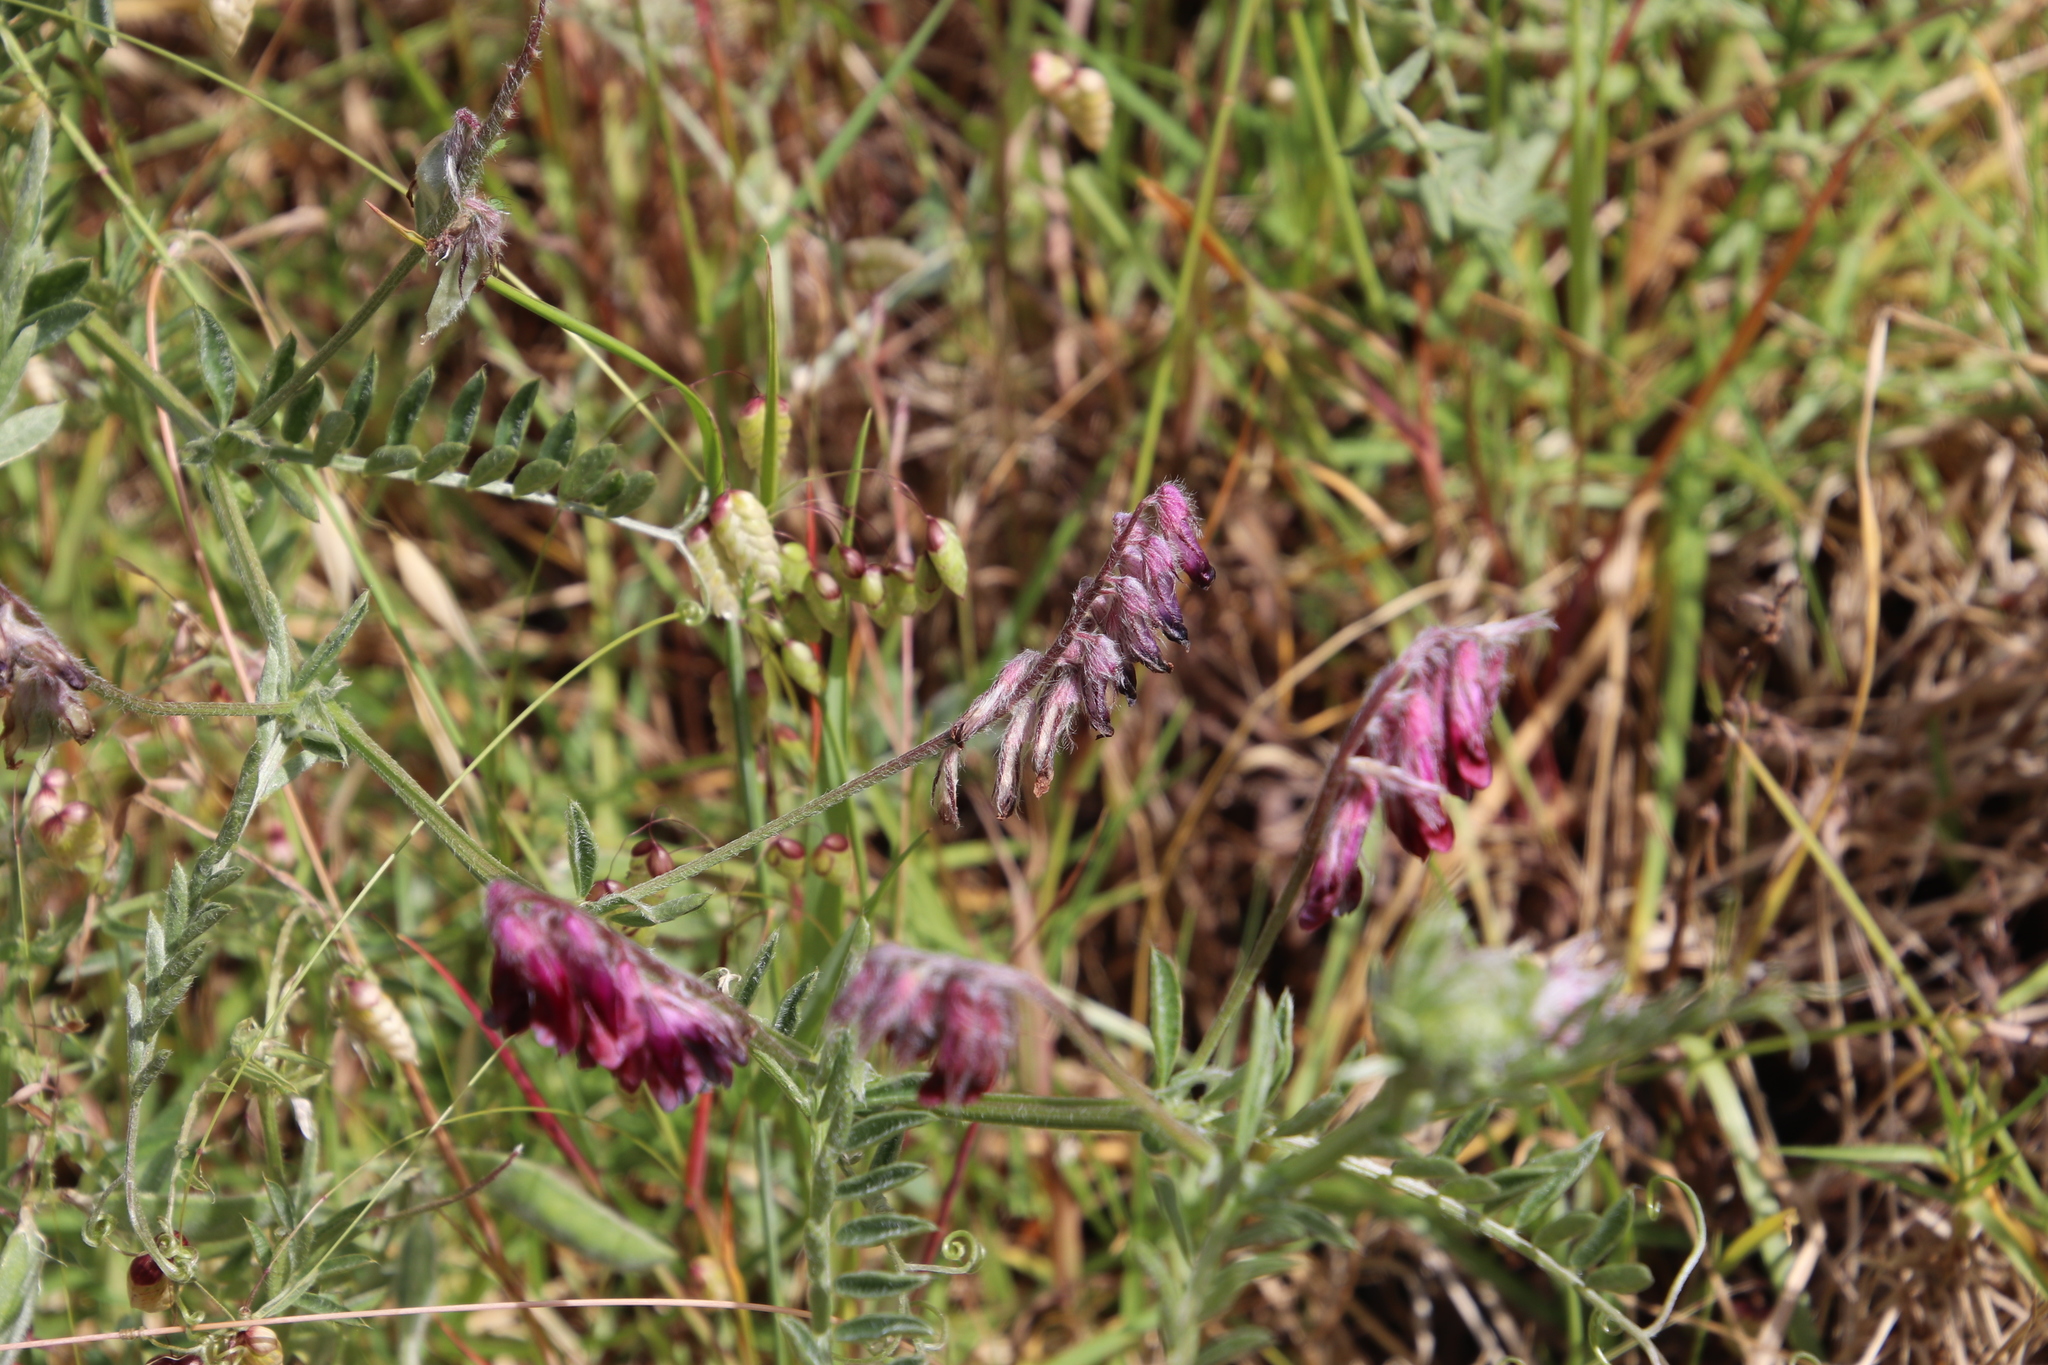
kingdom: Plantae
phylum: Tracheophyta
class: Magnoliopsida
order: Fabales
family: Fabaceae
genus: Vicia
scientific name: Vicia benghalensis
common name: Purple vetch
